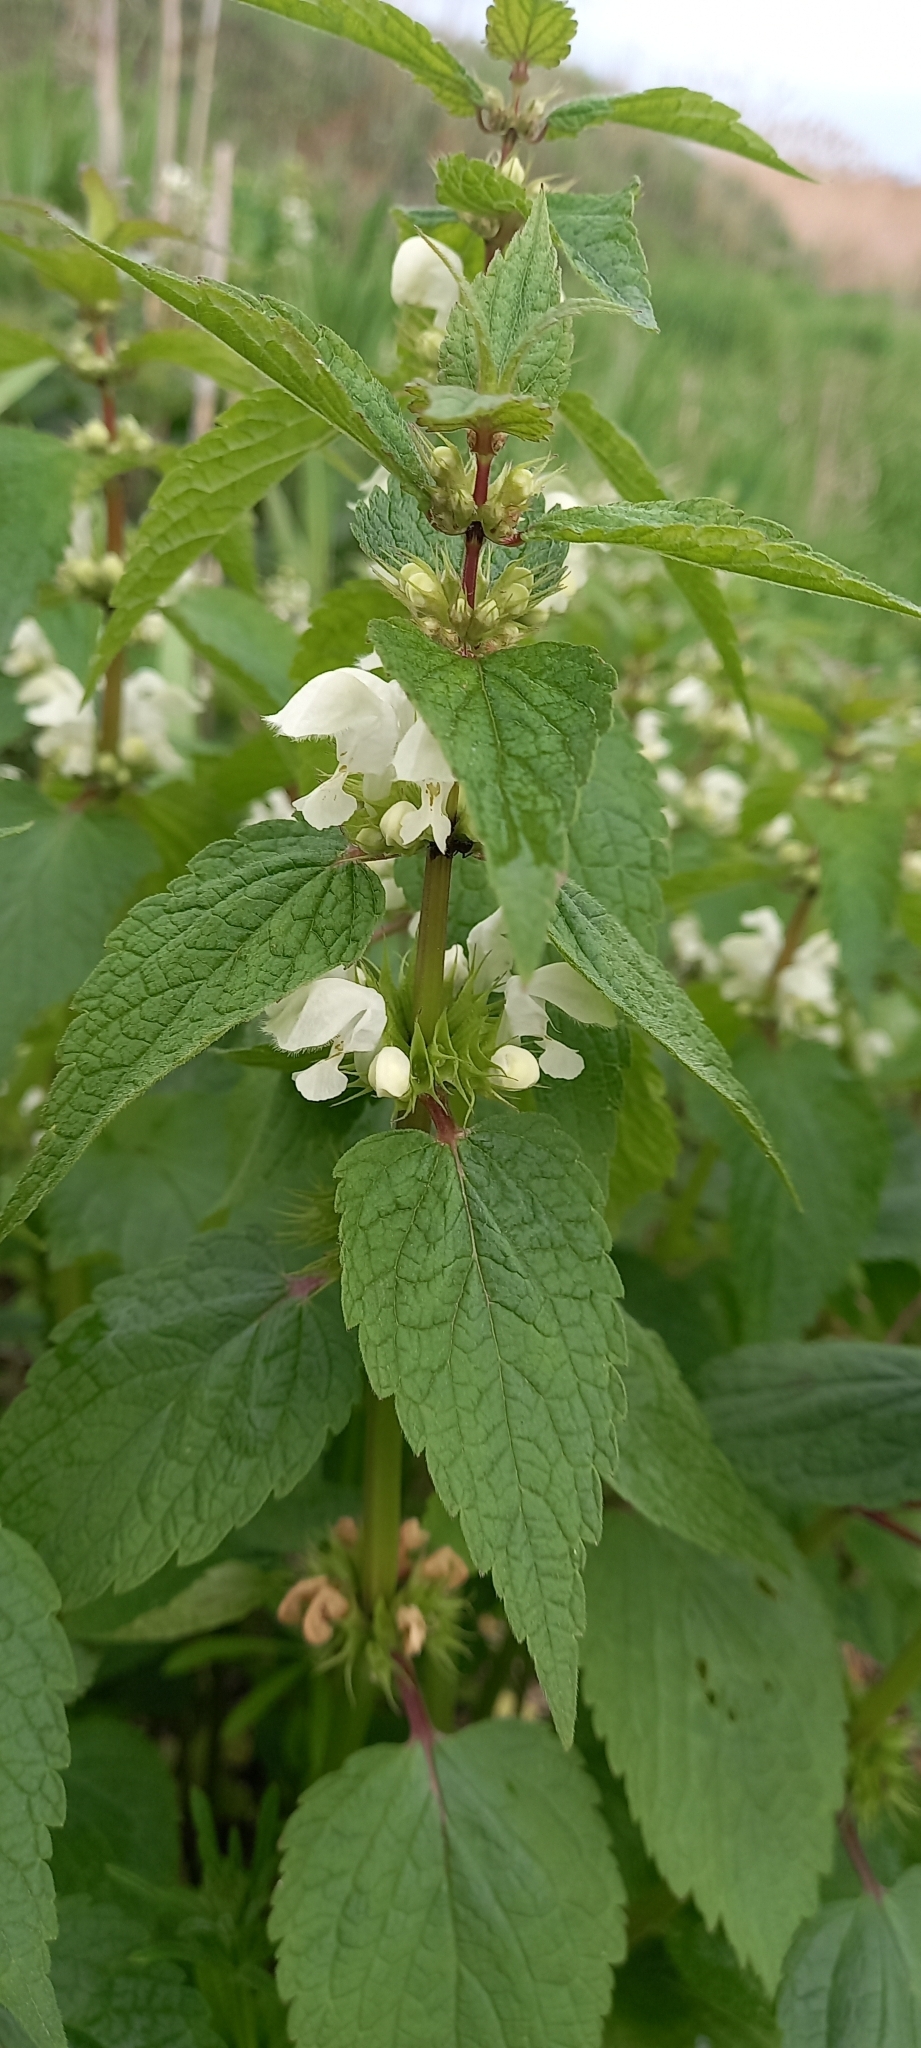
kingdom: Plantae
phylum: Tracheophyta
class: Magnoliopsida
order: Lamiales
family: Lamiaceae
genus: Lamium
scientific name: Lamium album
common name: White dead-nettle
